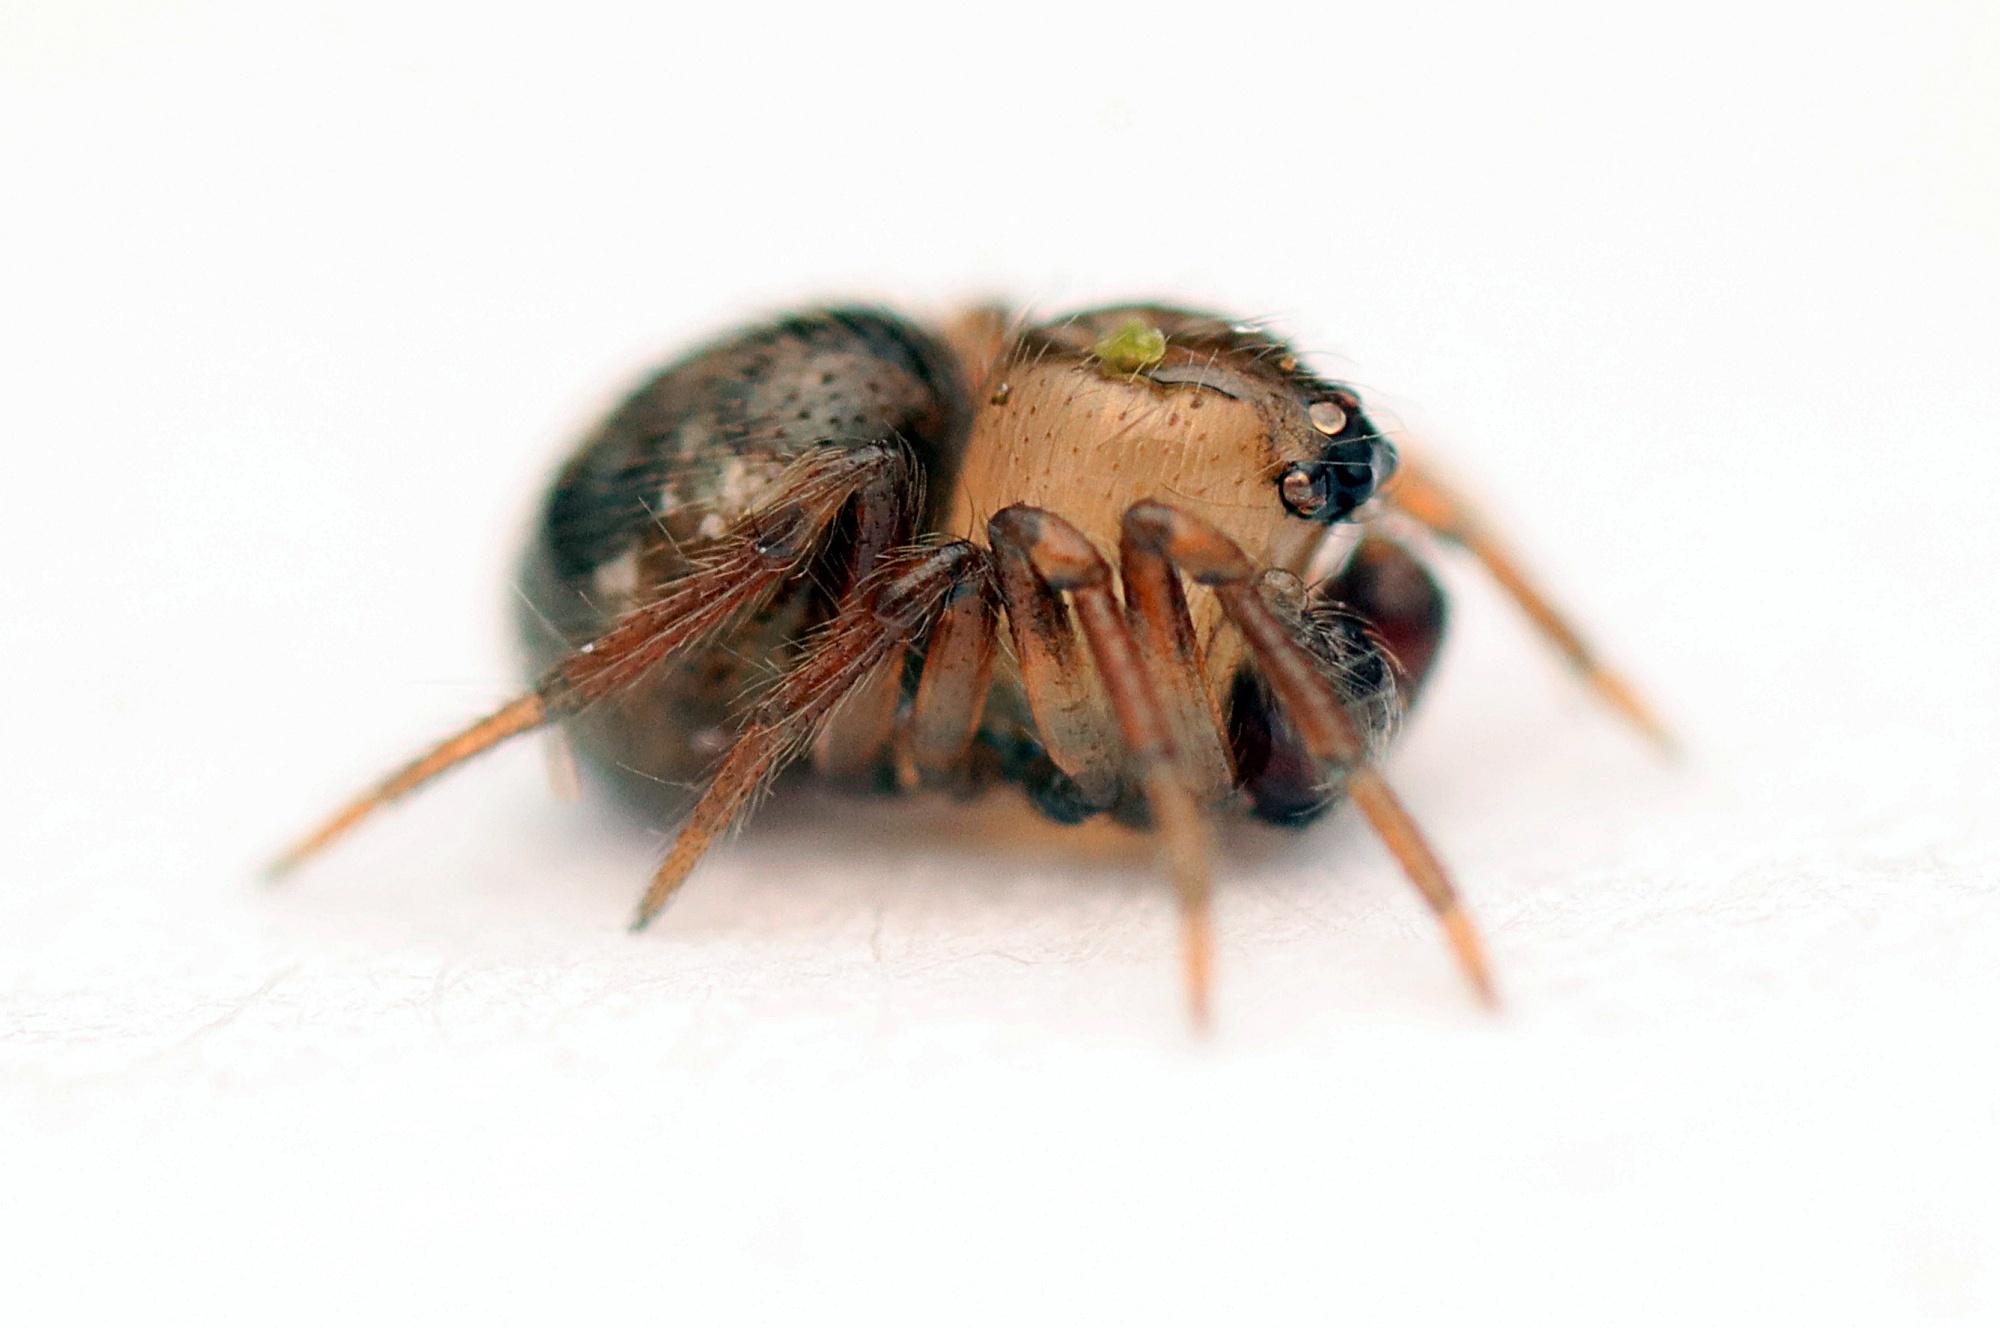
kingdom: Animalia
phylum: Arthropoda
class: Arachnida
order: Araneae
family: Theridiidae
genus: Phycosoma
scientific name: Phycosoma oecobioides
